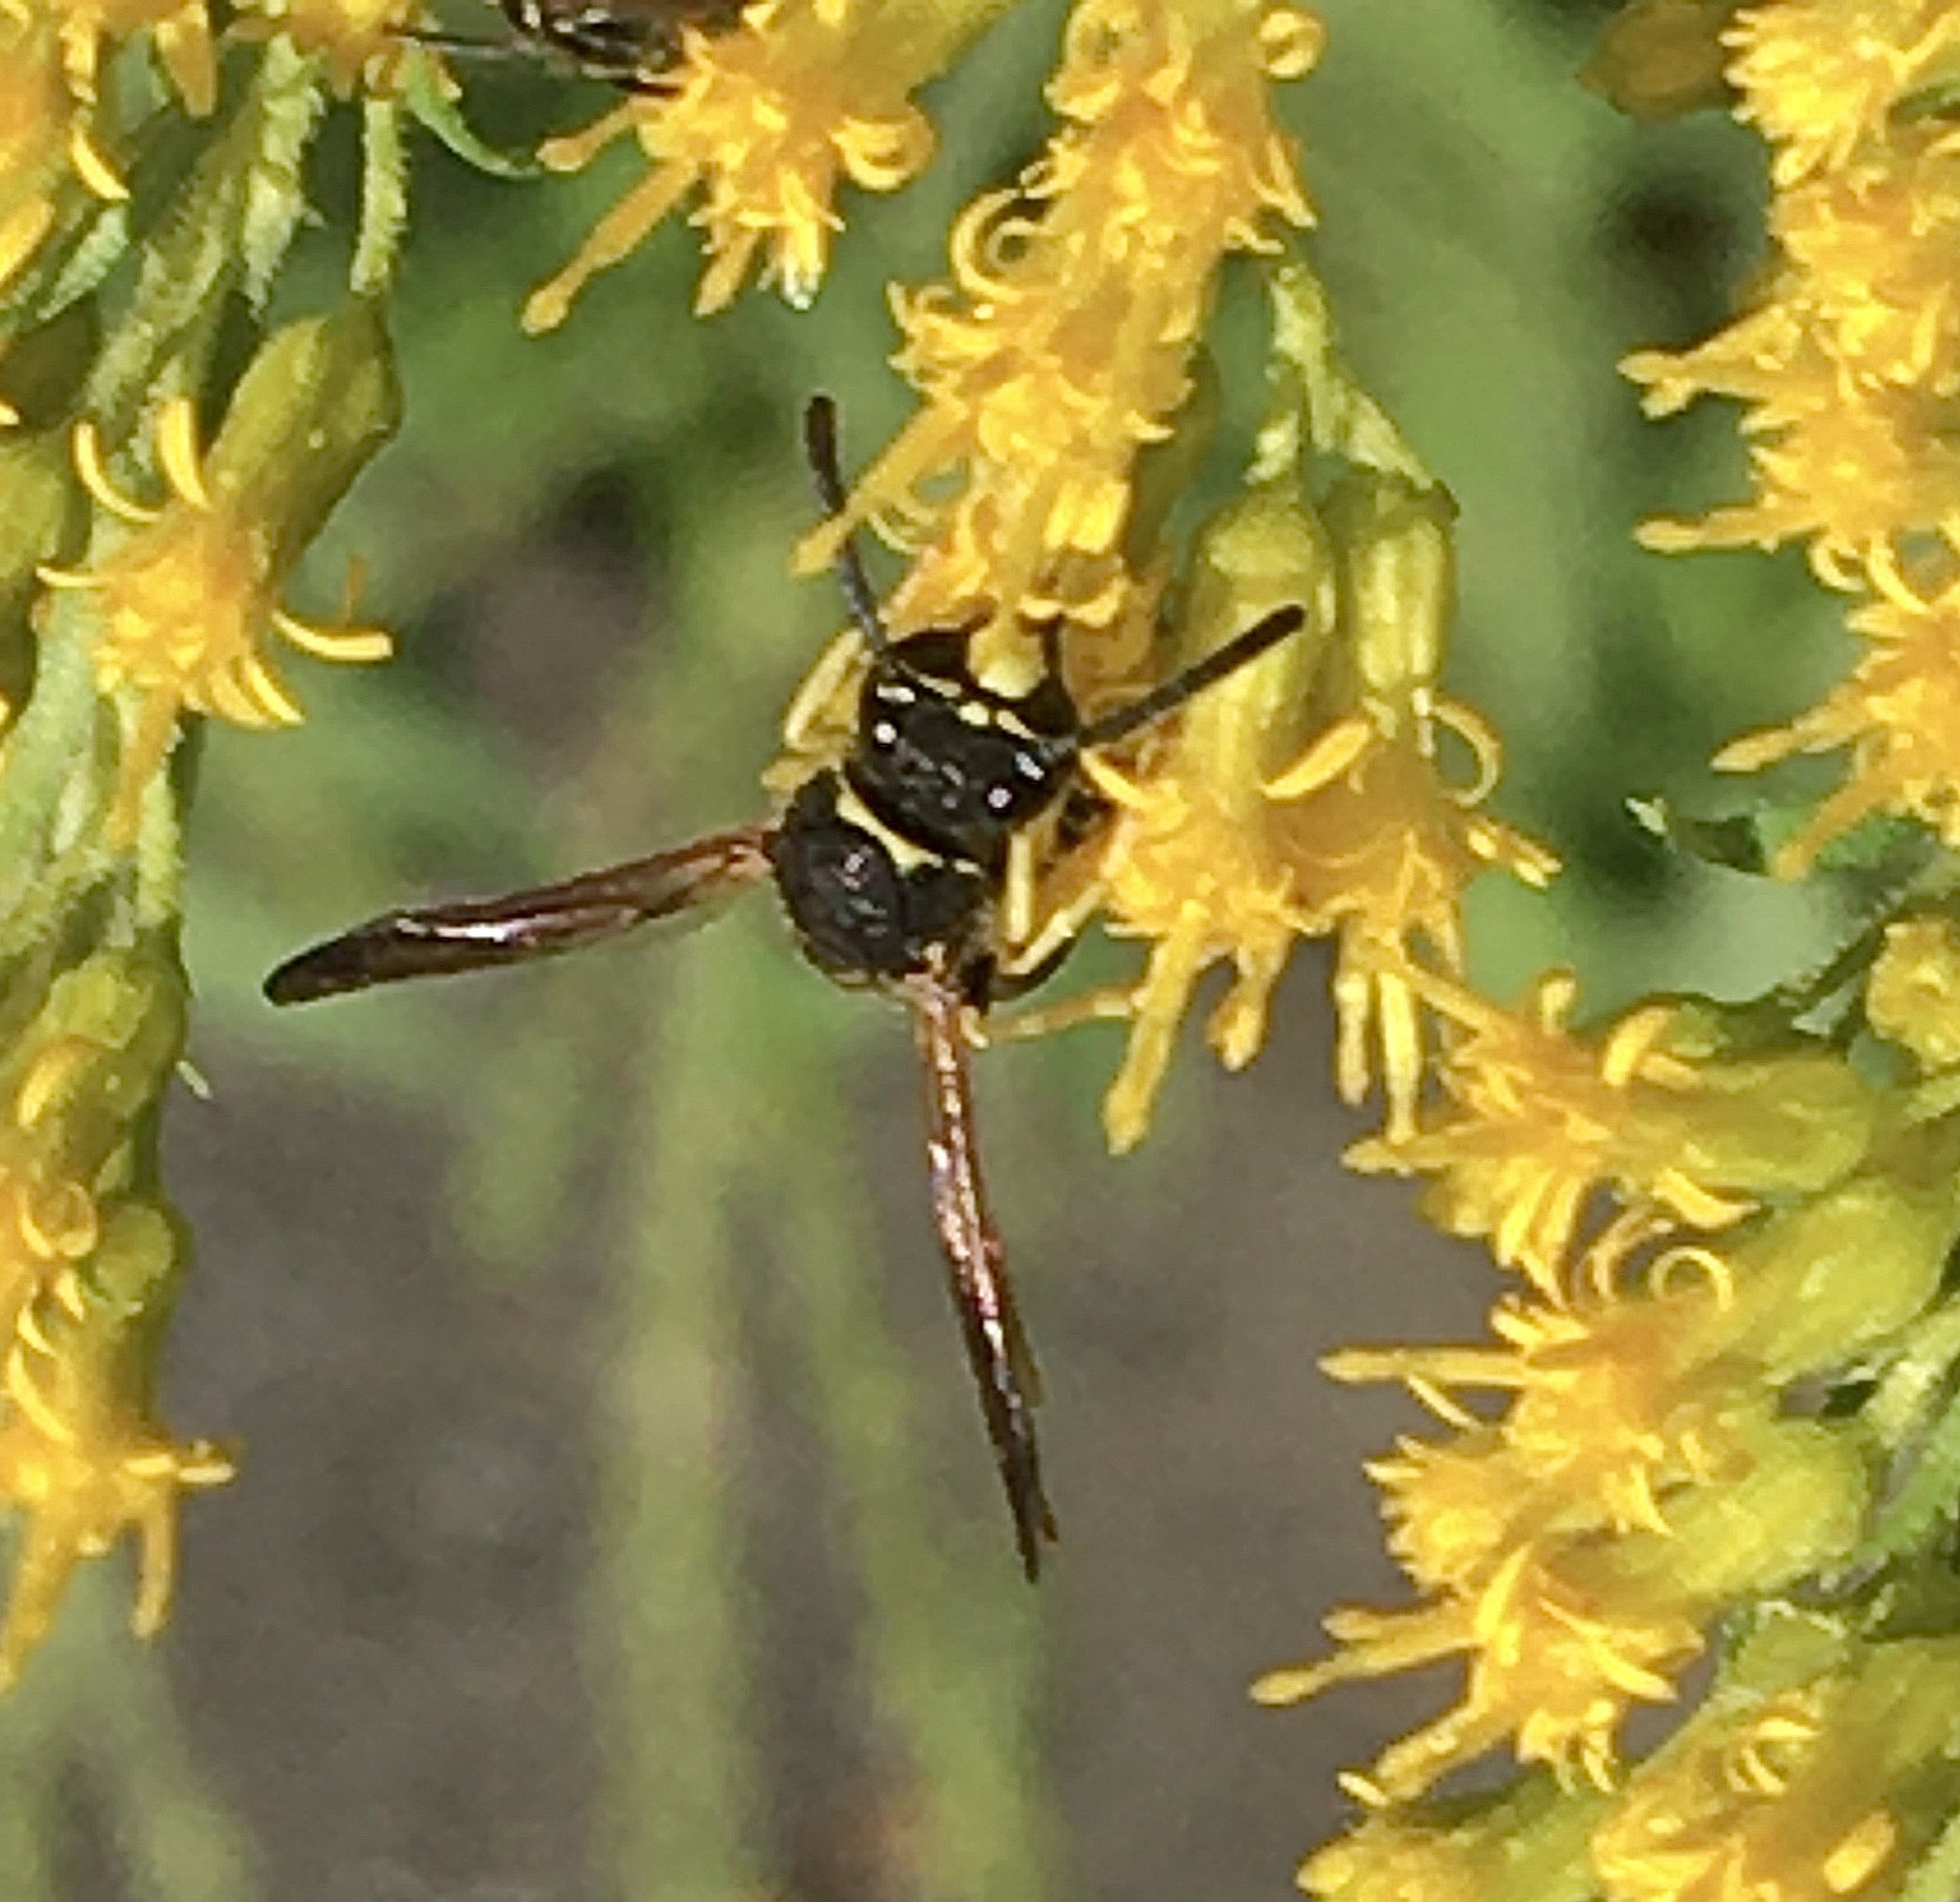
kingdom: Animalia
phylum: Arthropoda
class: Insecta
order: Hymenoptera
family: Vespidae
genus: Ancistrocerus
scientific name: Ancistrocerus
